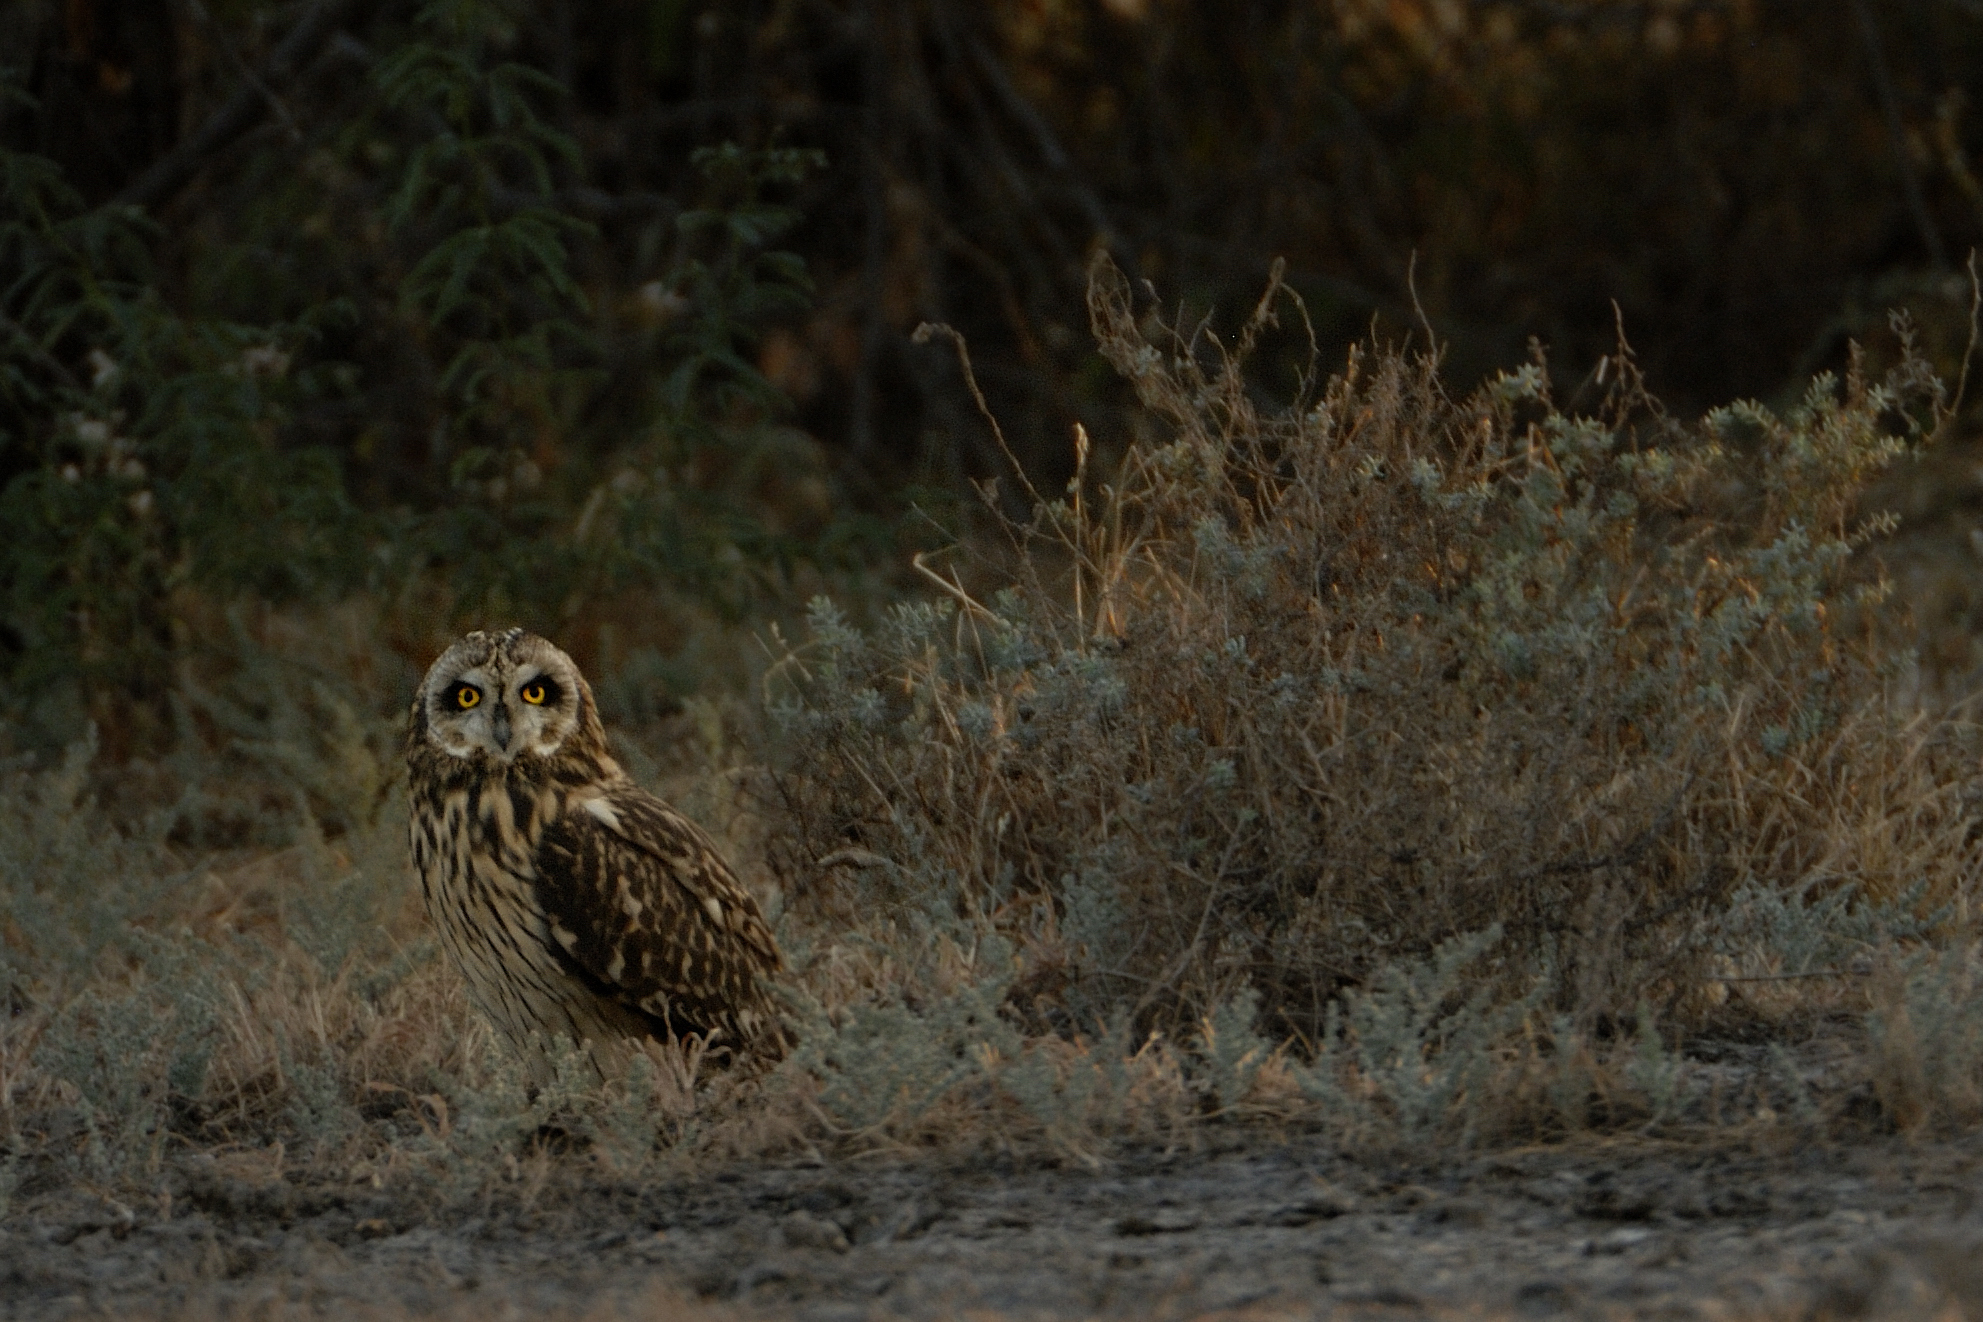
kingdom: Animalia
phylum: Chordata
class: Aves
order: Strigiformes
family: Strigidae
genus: Asio
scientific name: Asio flammeus
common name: Short-eared owl
